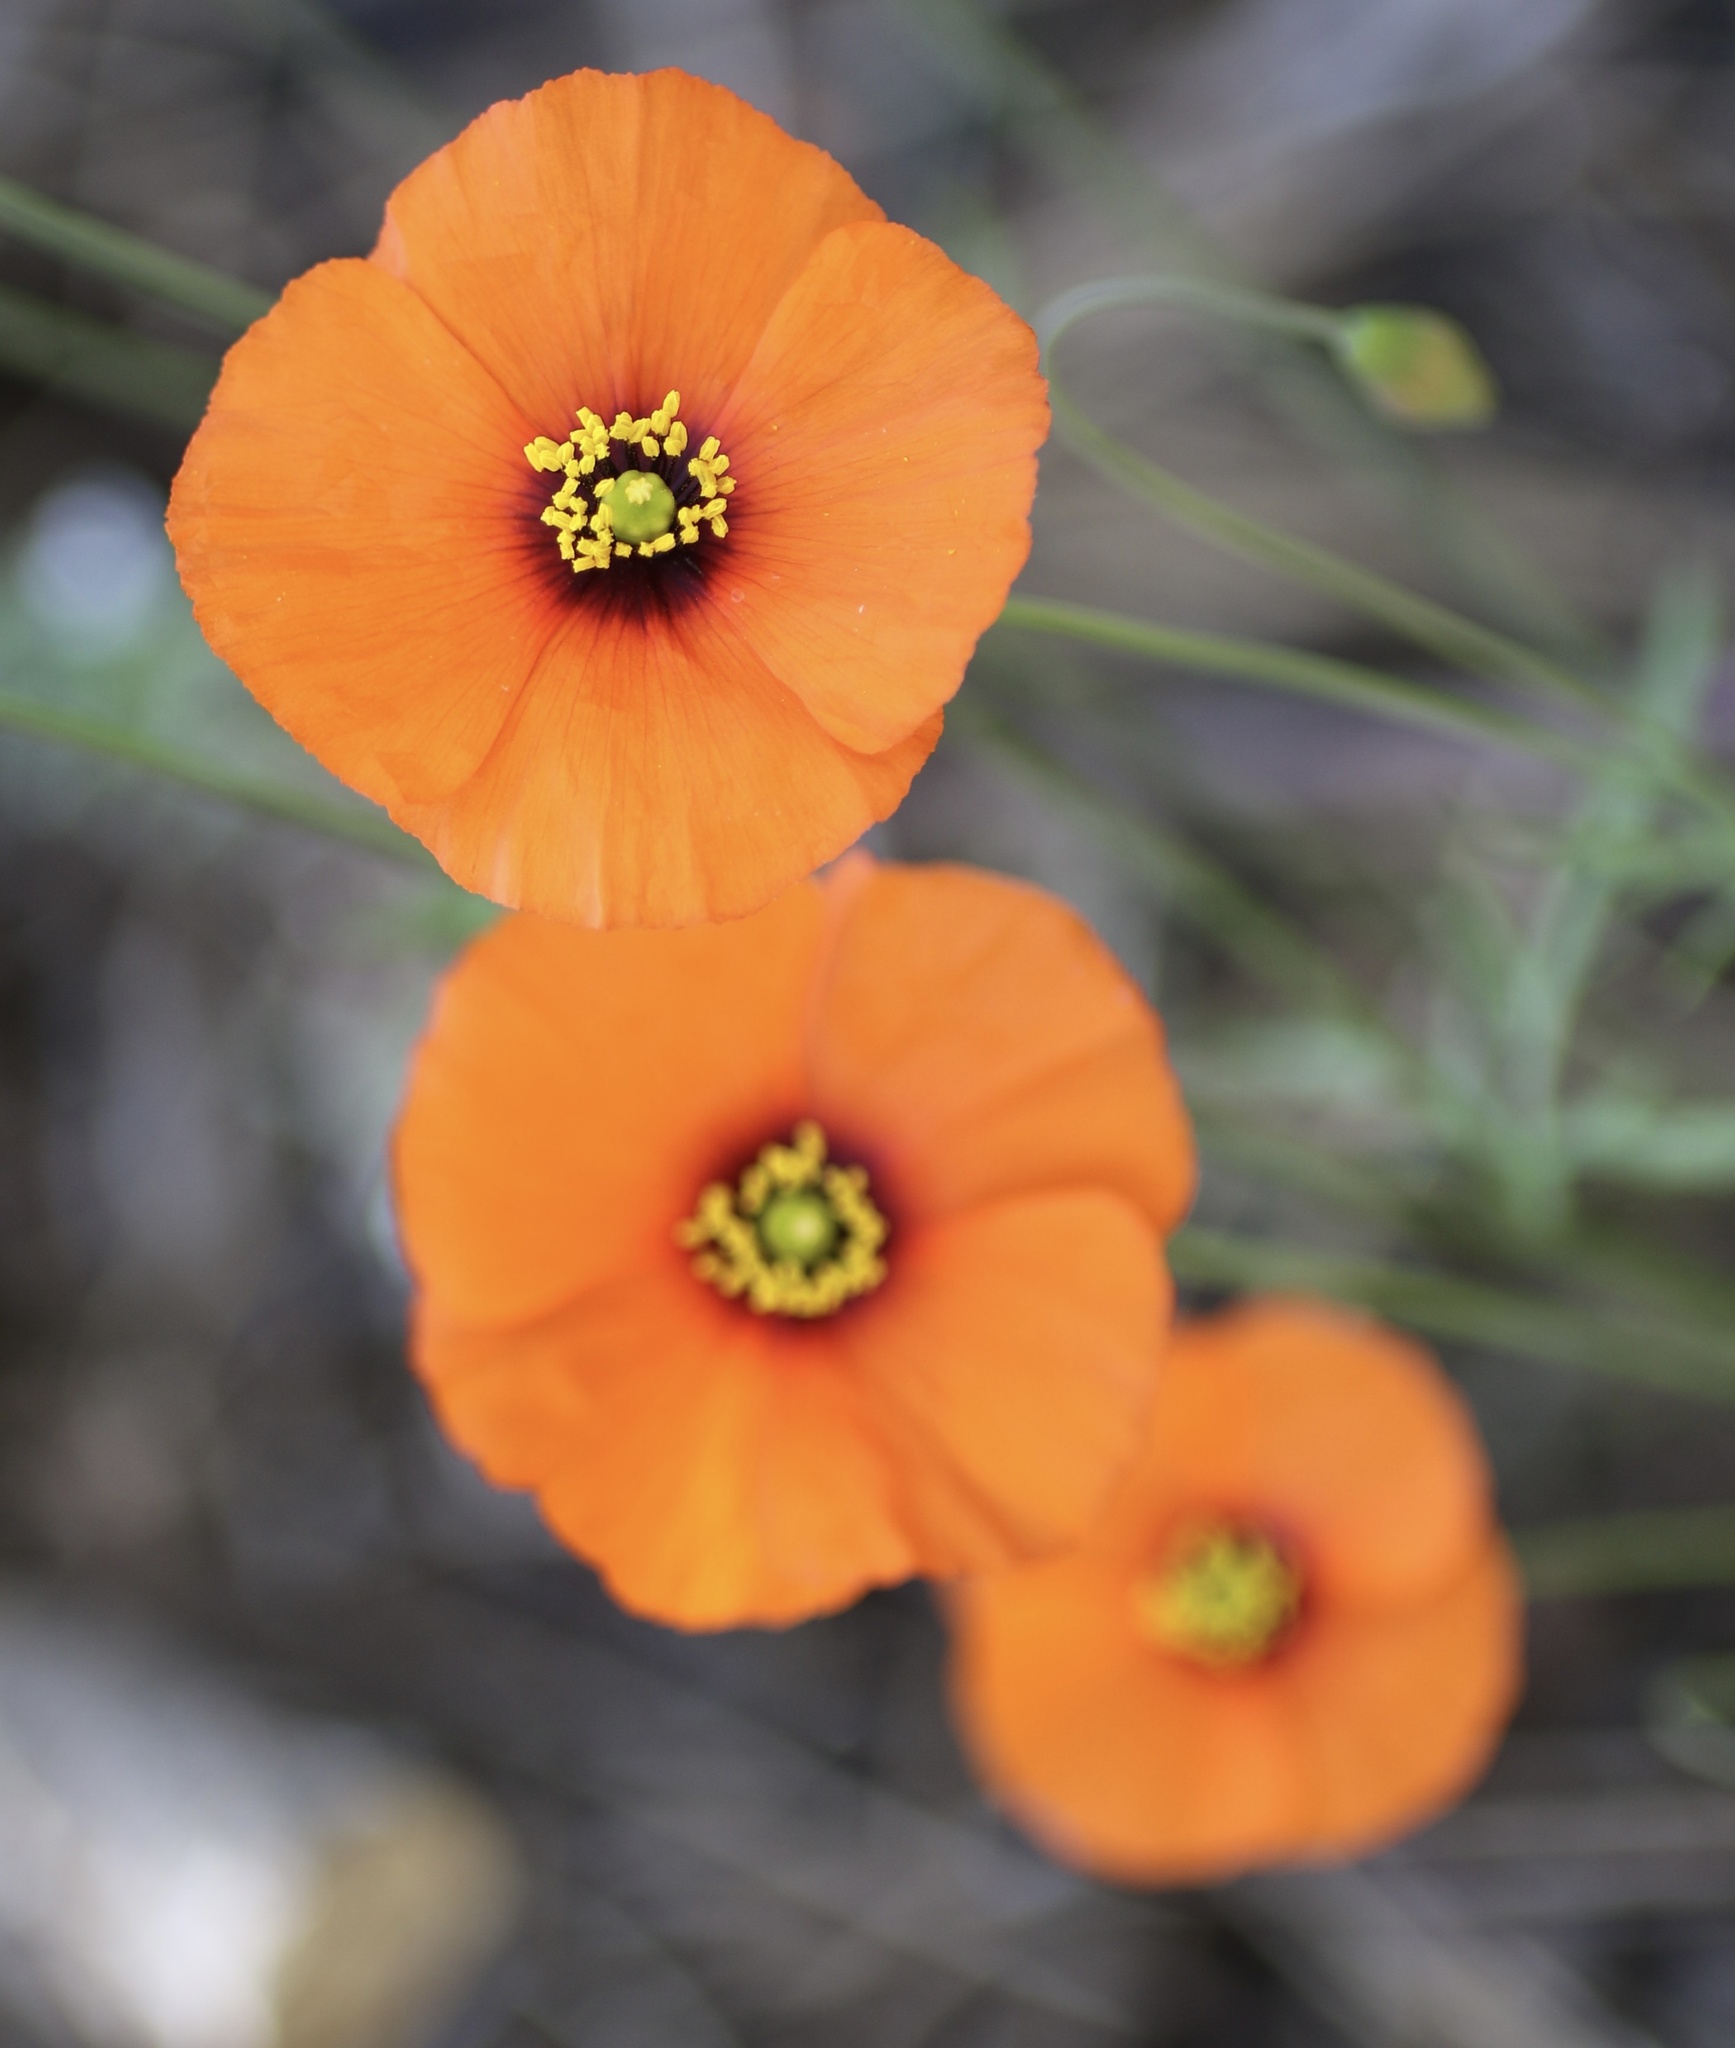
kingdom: Plantae
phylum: Tracheophyta
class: Magnoliopsida
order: Ranunculales
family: Papaveraceae
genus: Stylomecon
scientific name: Stylomecon heterophylla
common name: Flaming-poppy
